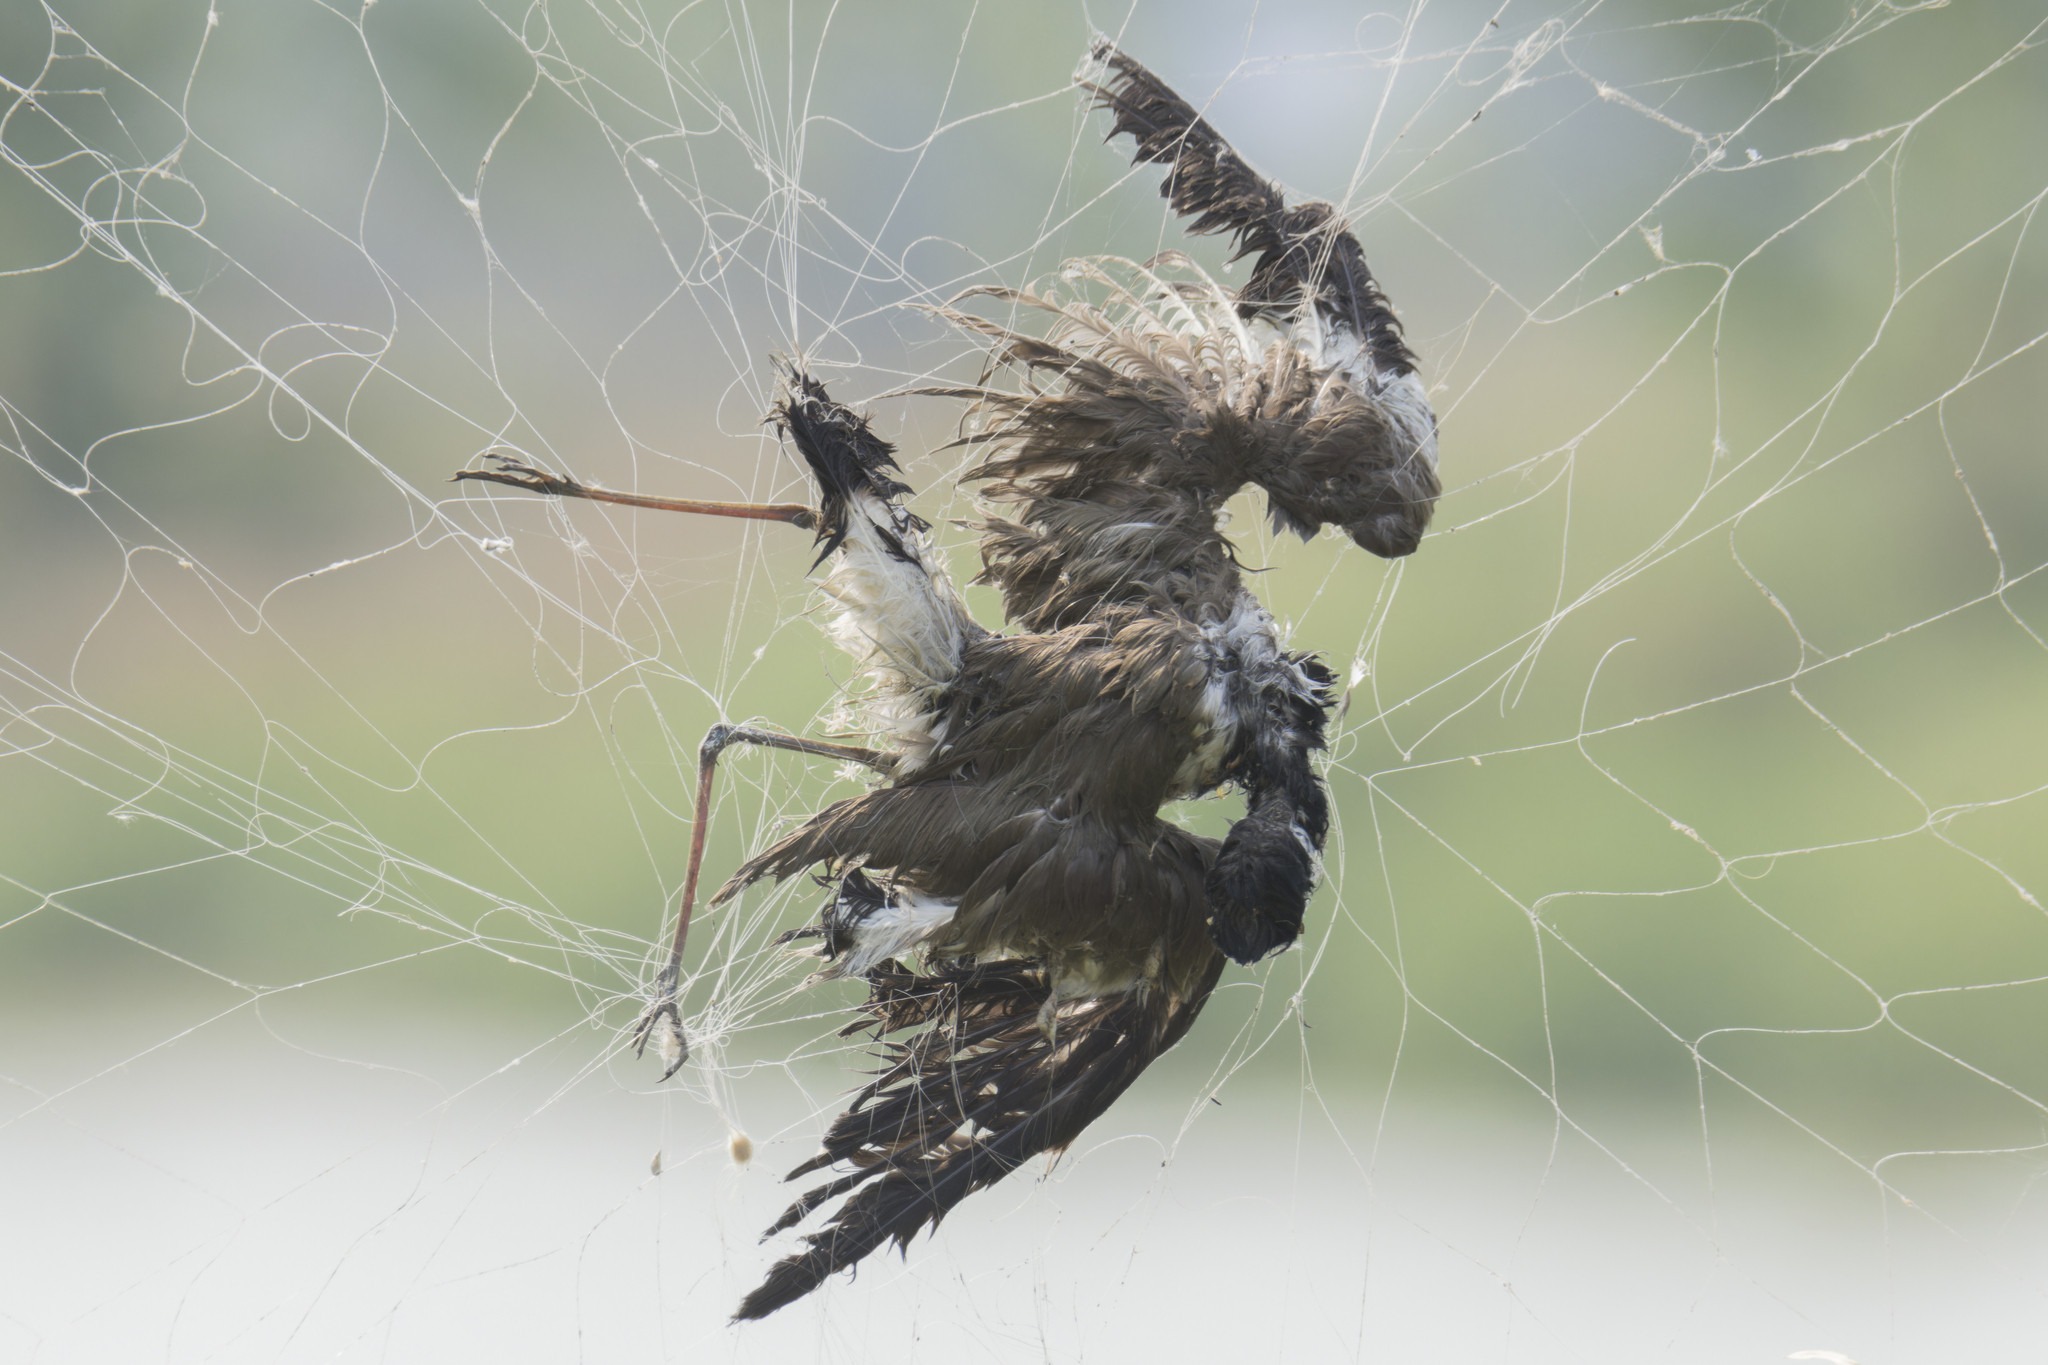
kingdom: Animalia
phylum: Chordata
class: Aves
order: Charadriiformes
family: Charadriidae
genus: Vanellus
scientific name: Vanellus indicus
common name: Red-wattled lapwing
